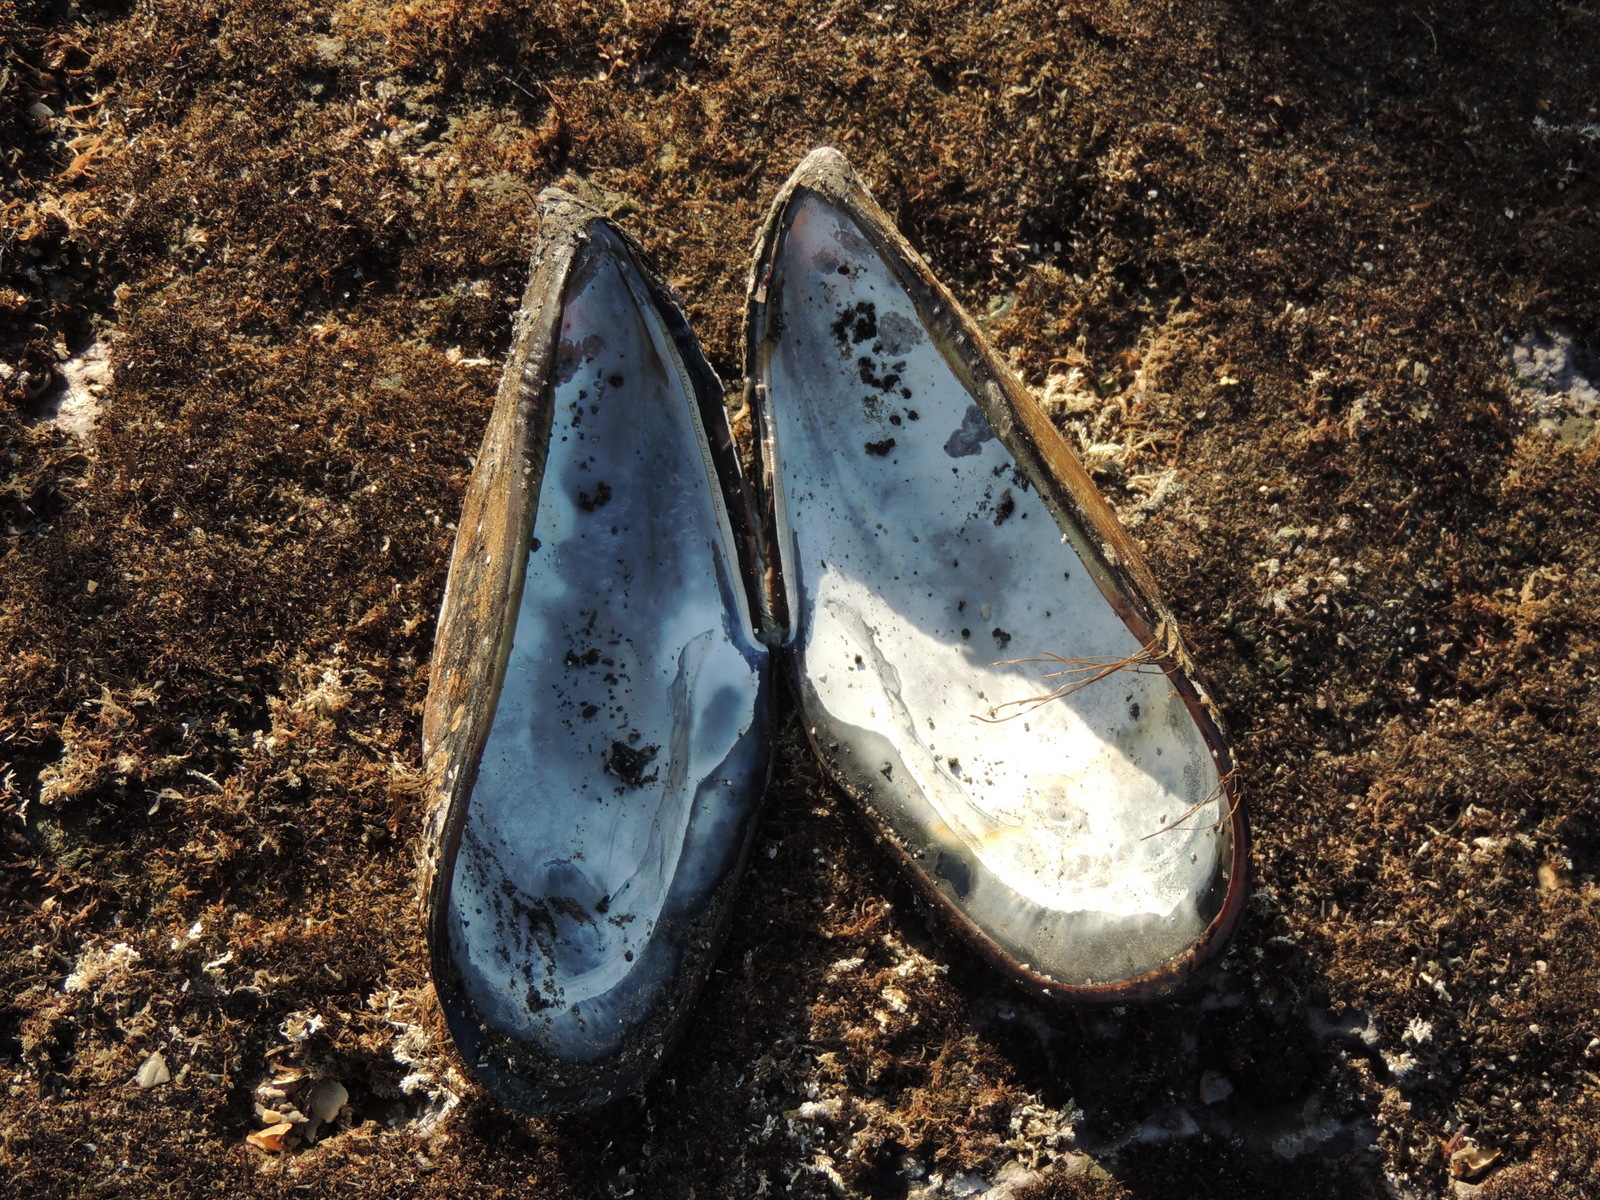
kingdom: Animalia
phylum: Mollusca
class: Bivalvia
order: Mytilida
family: Mytilidae
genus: Mytilus
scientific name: Mytilus californianus
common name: California mussel
